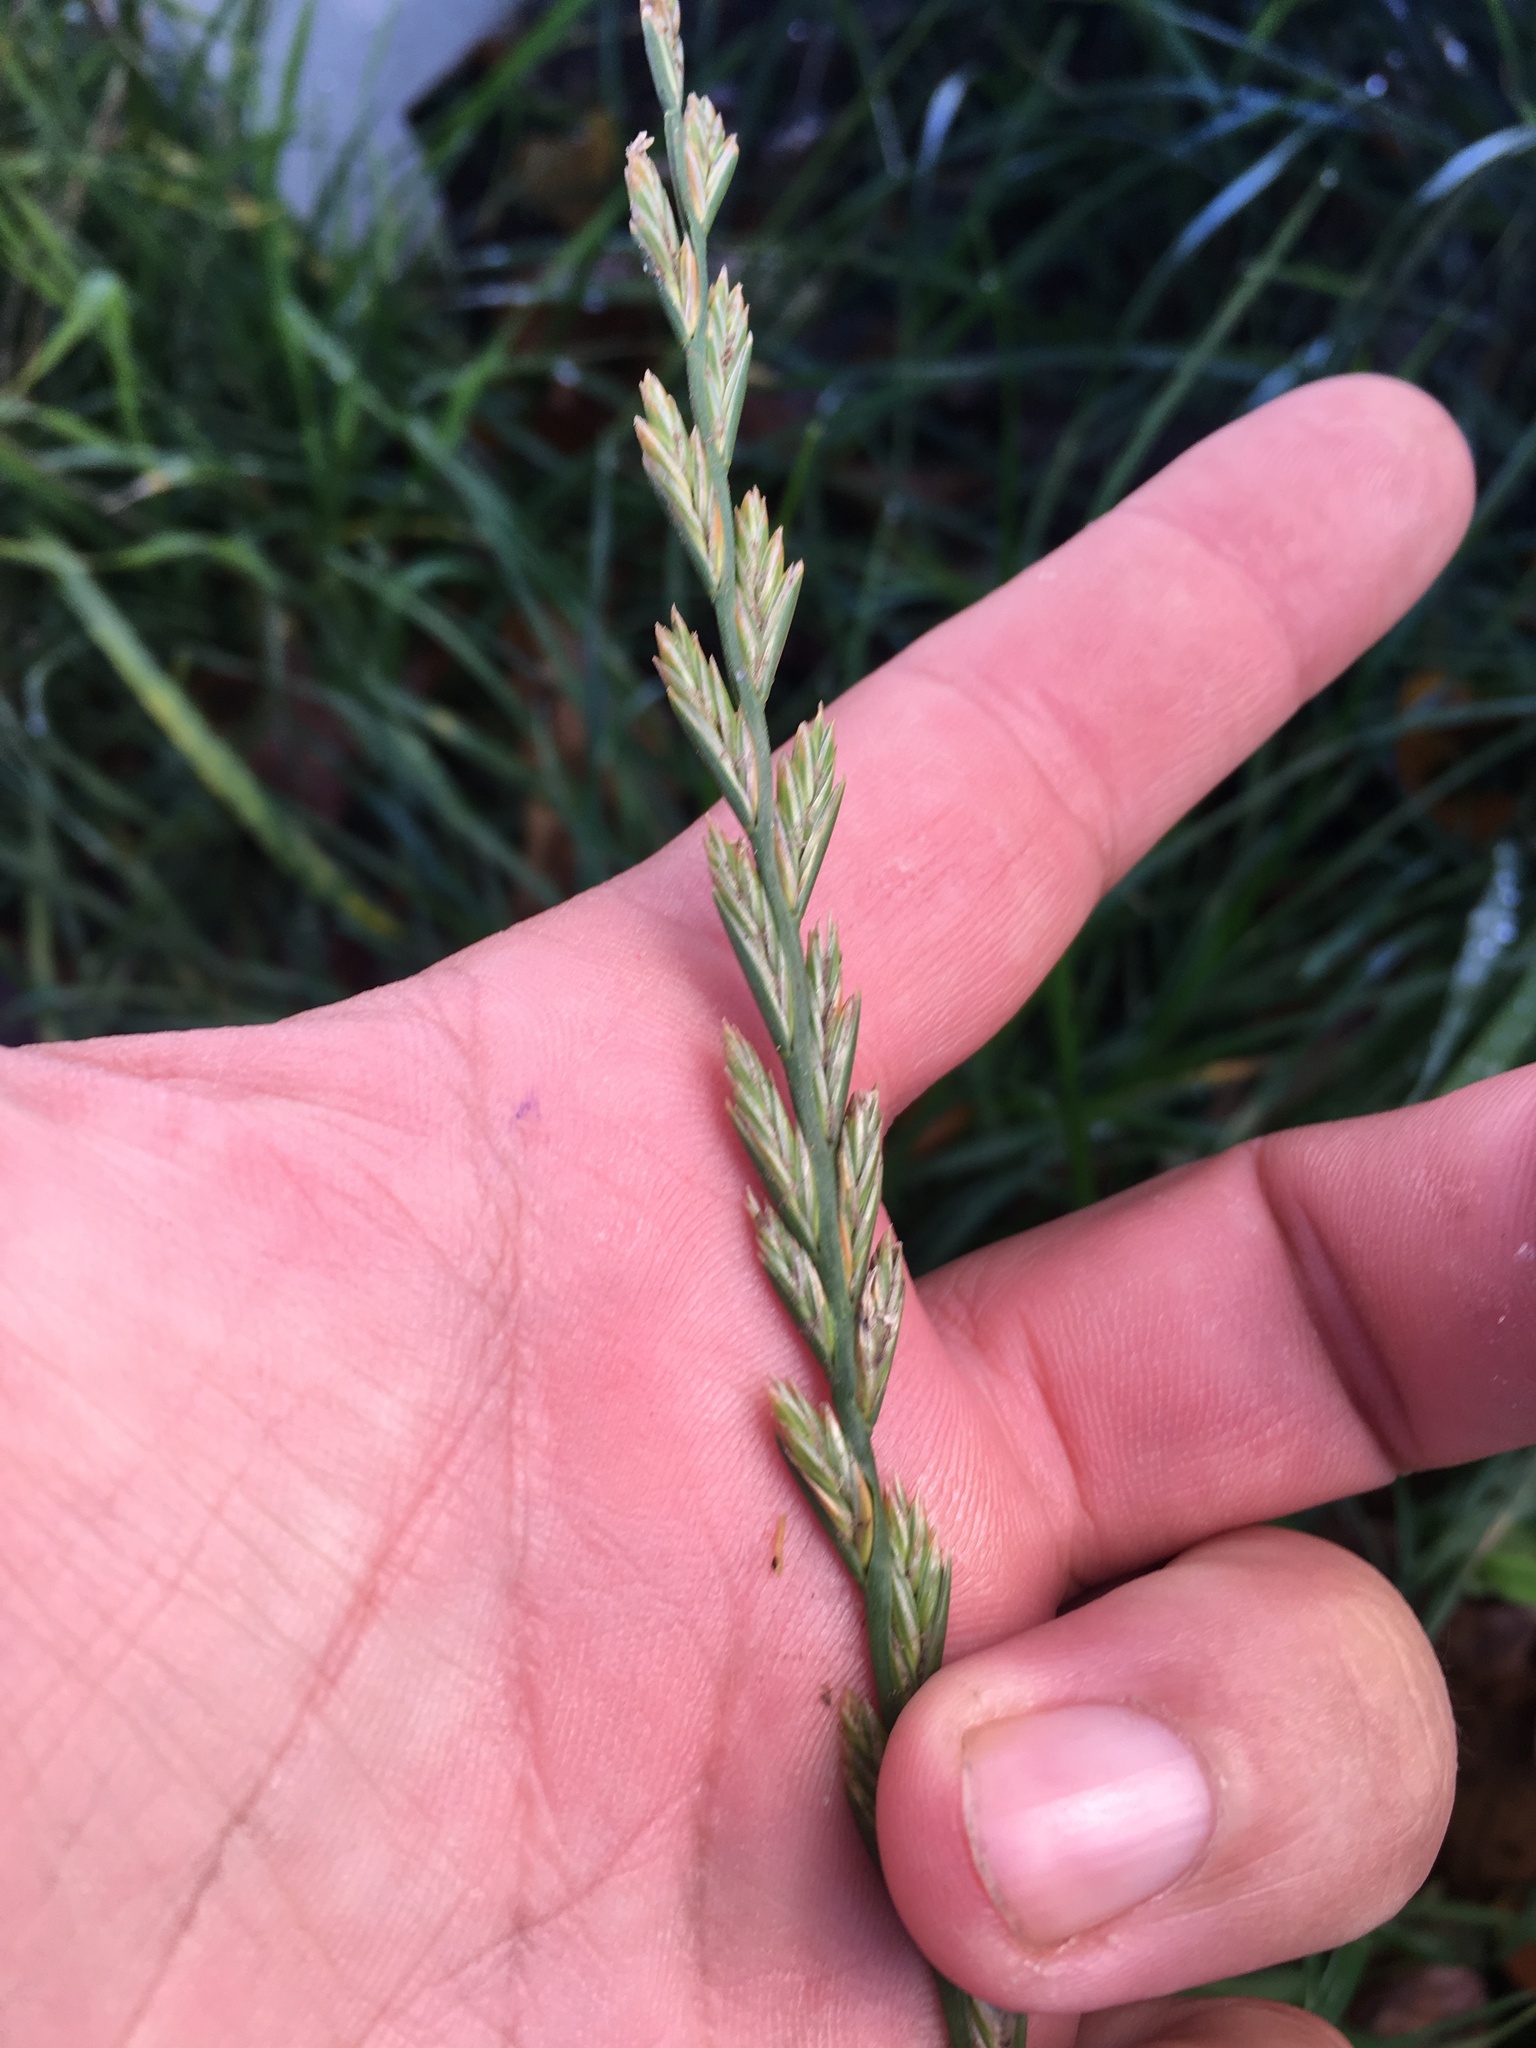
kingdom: Plantae
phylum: Tracheophyta
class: Liliopsida
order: Poales
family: Poaceae
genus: Lolium
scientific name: Lolium perenne
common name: Perennial ryegrass
